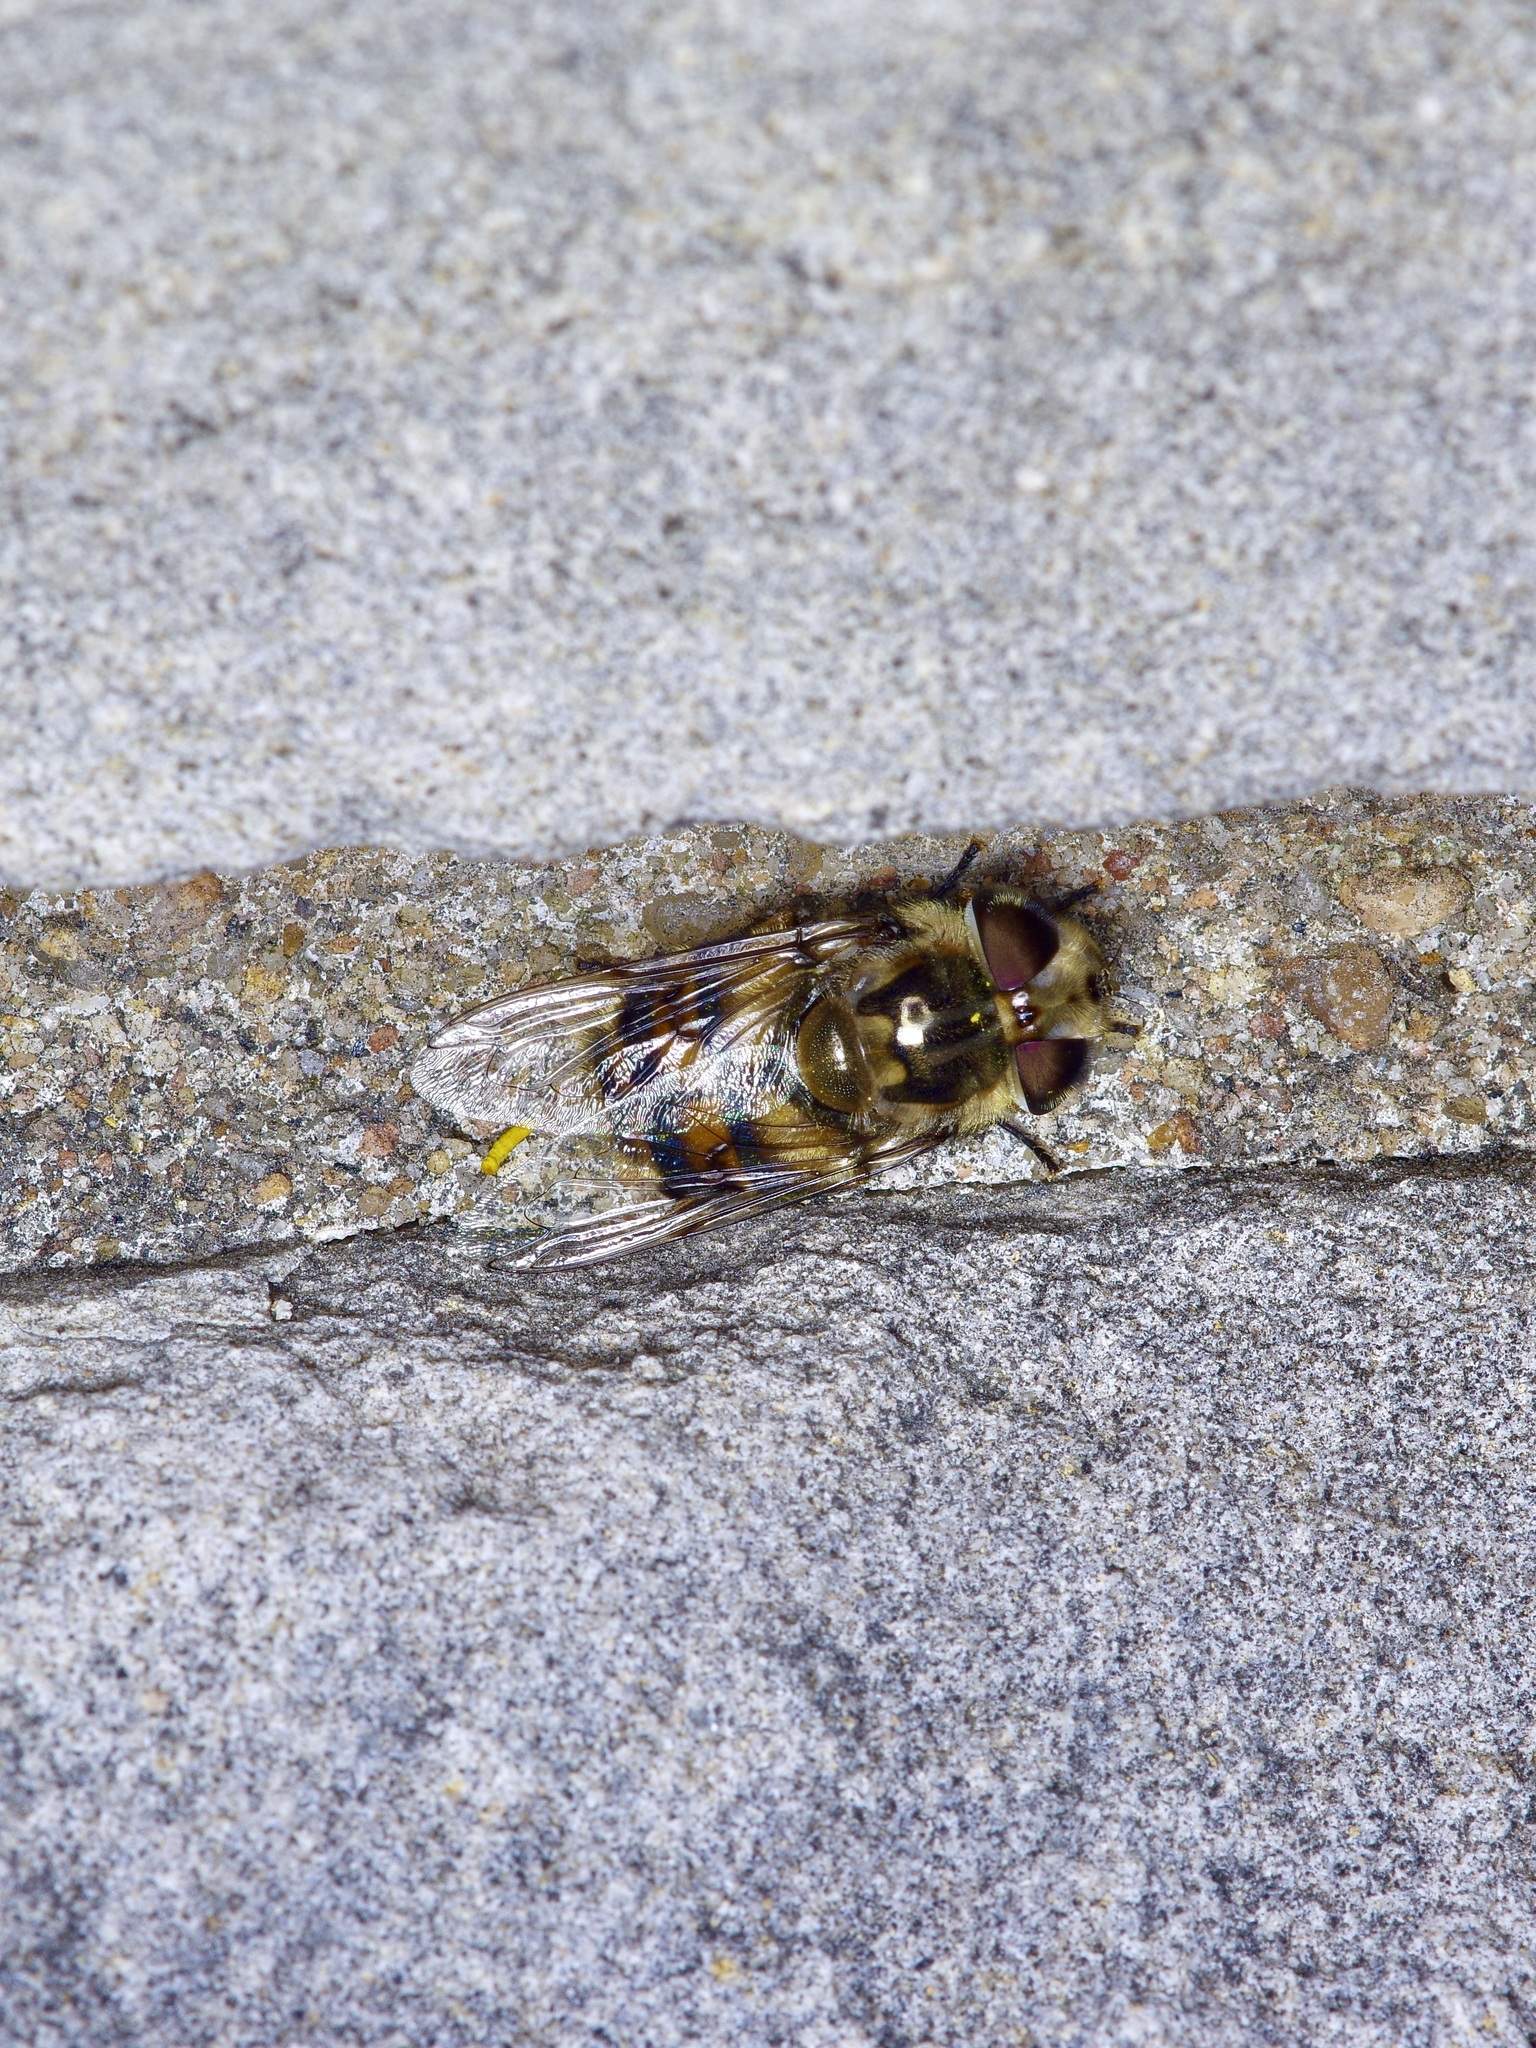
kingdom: Animalia
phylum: Arthropoda
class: Insecta
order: Diptera
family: Syrphidae
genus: Copestylum
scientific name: Copestylum avidum
